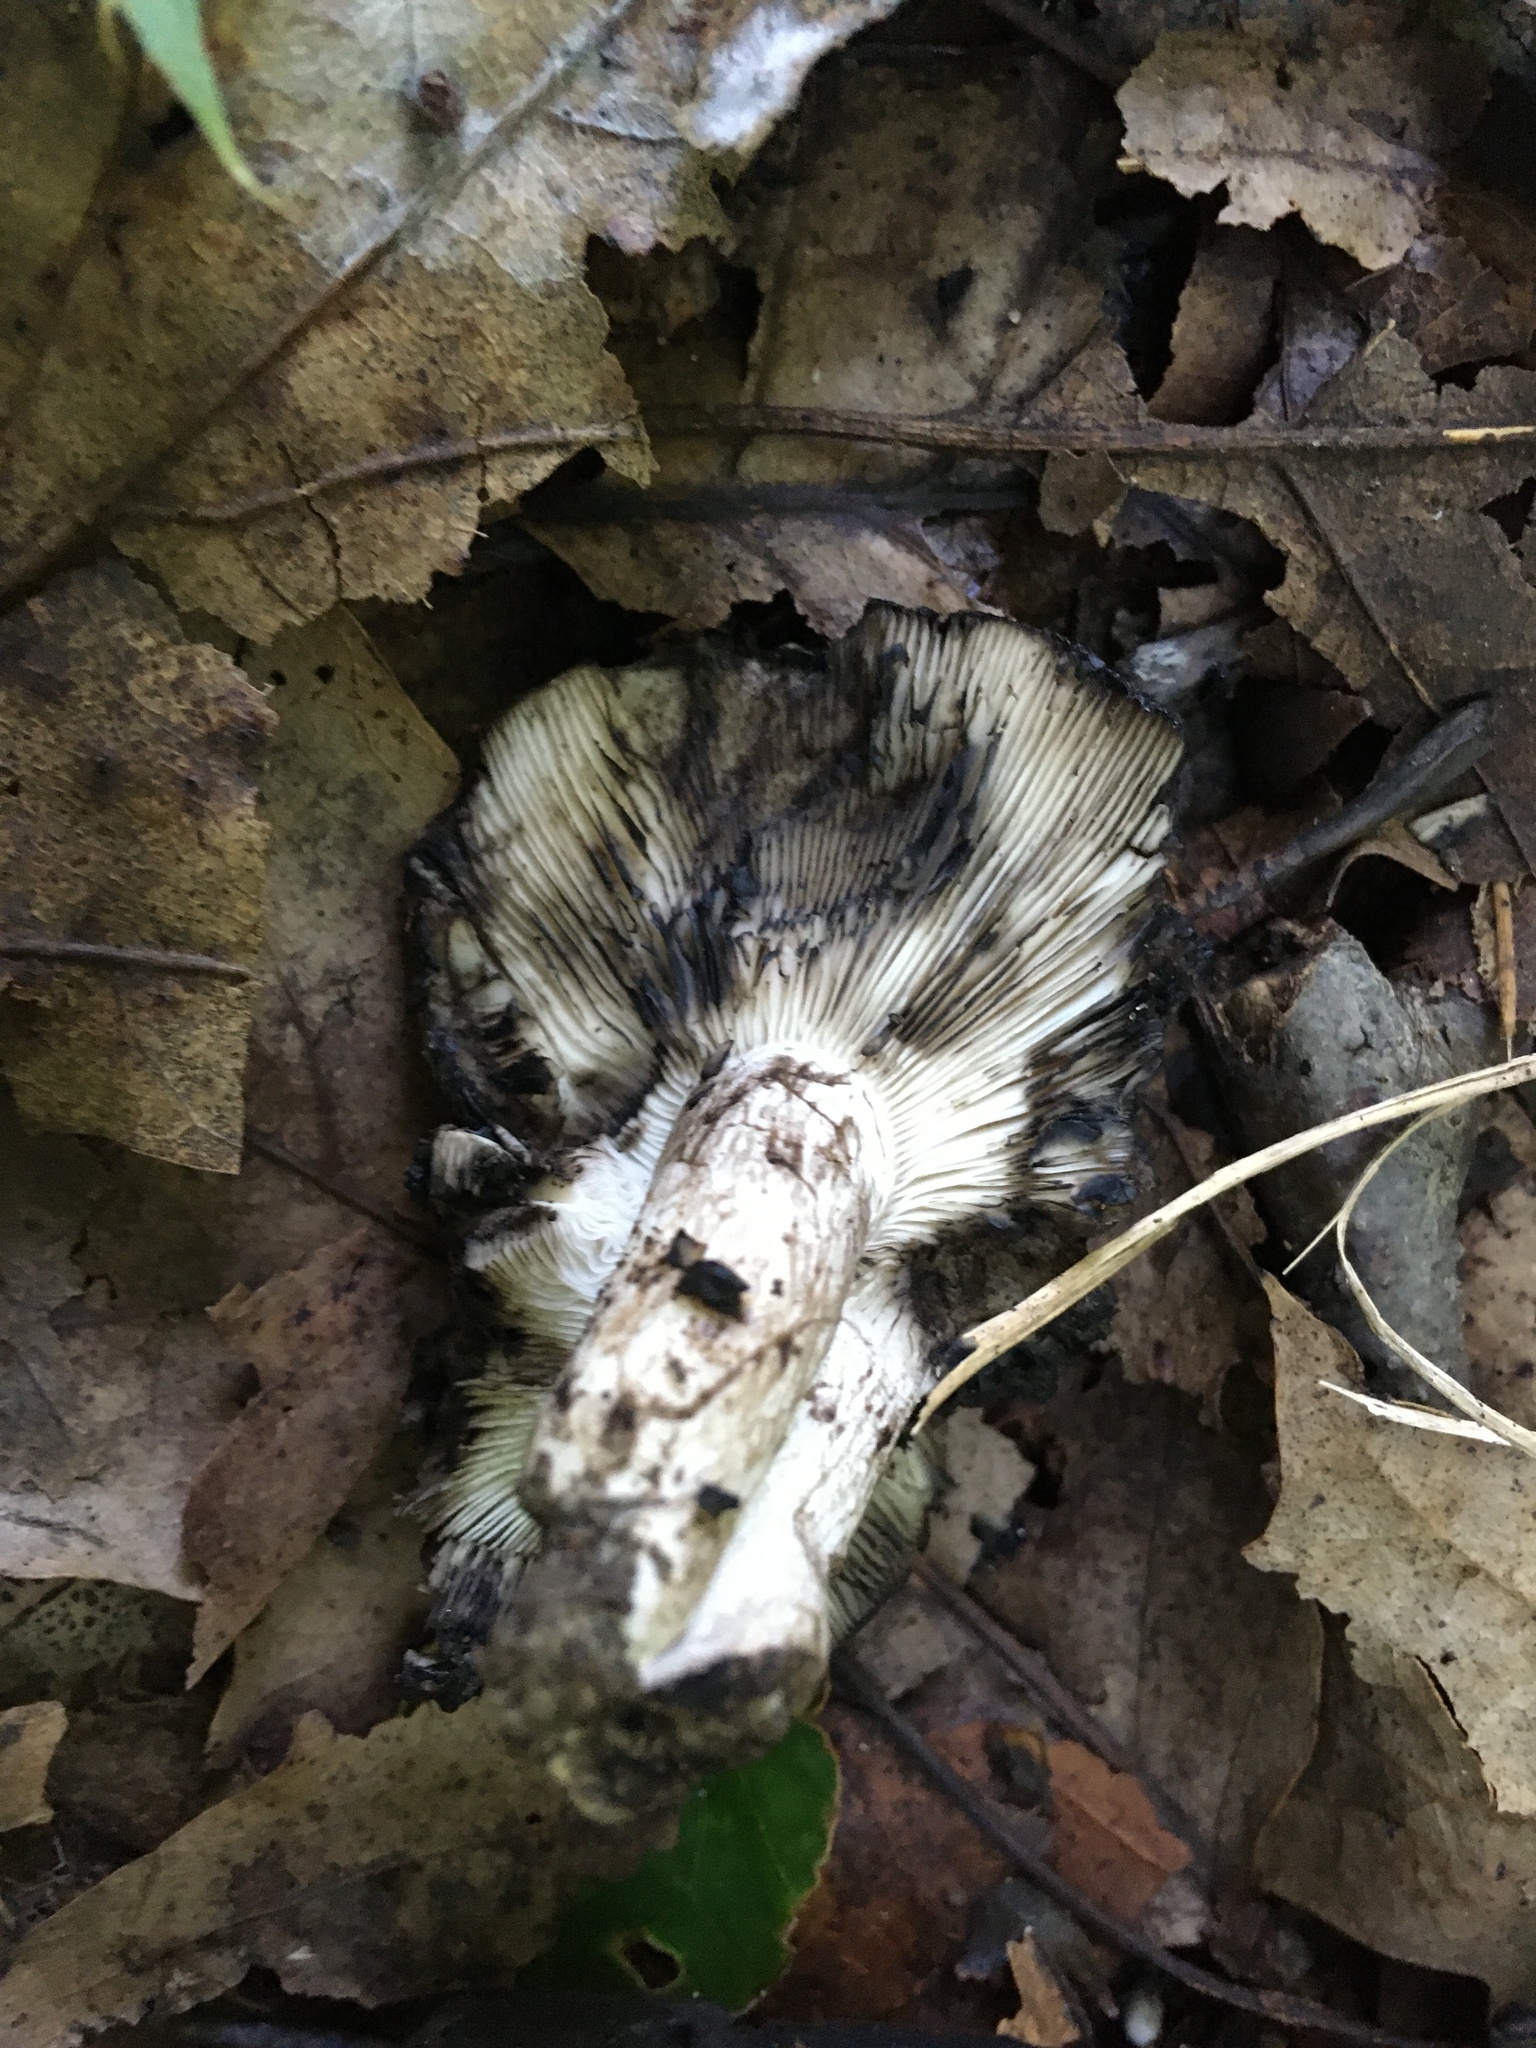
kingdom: Fungi
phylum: Basidiomycota
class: Agaricomycetes
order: Russulales
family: Russulaceae
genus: Russula
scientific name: Russula albonigra
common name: Menthol brittlegill
